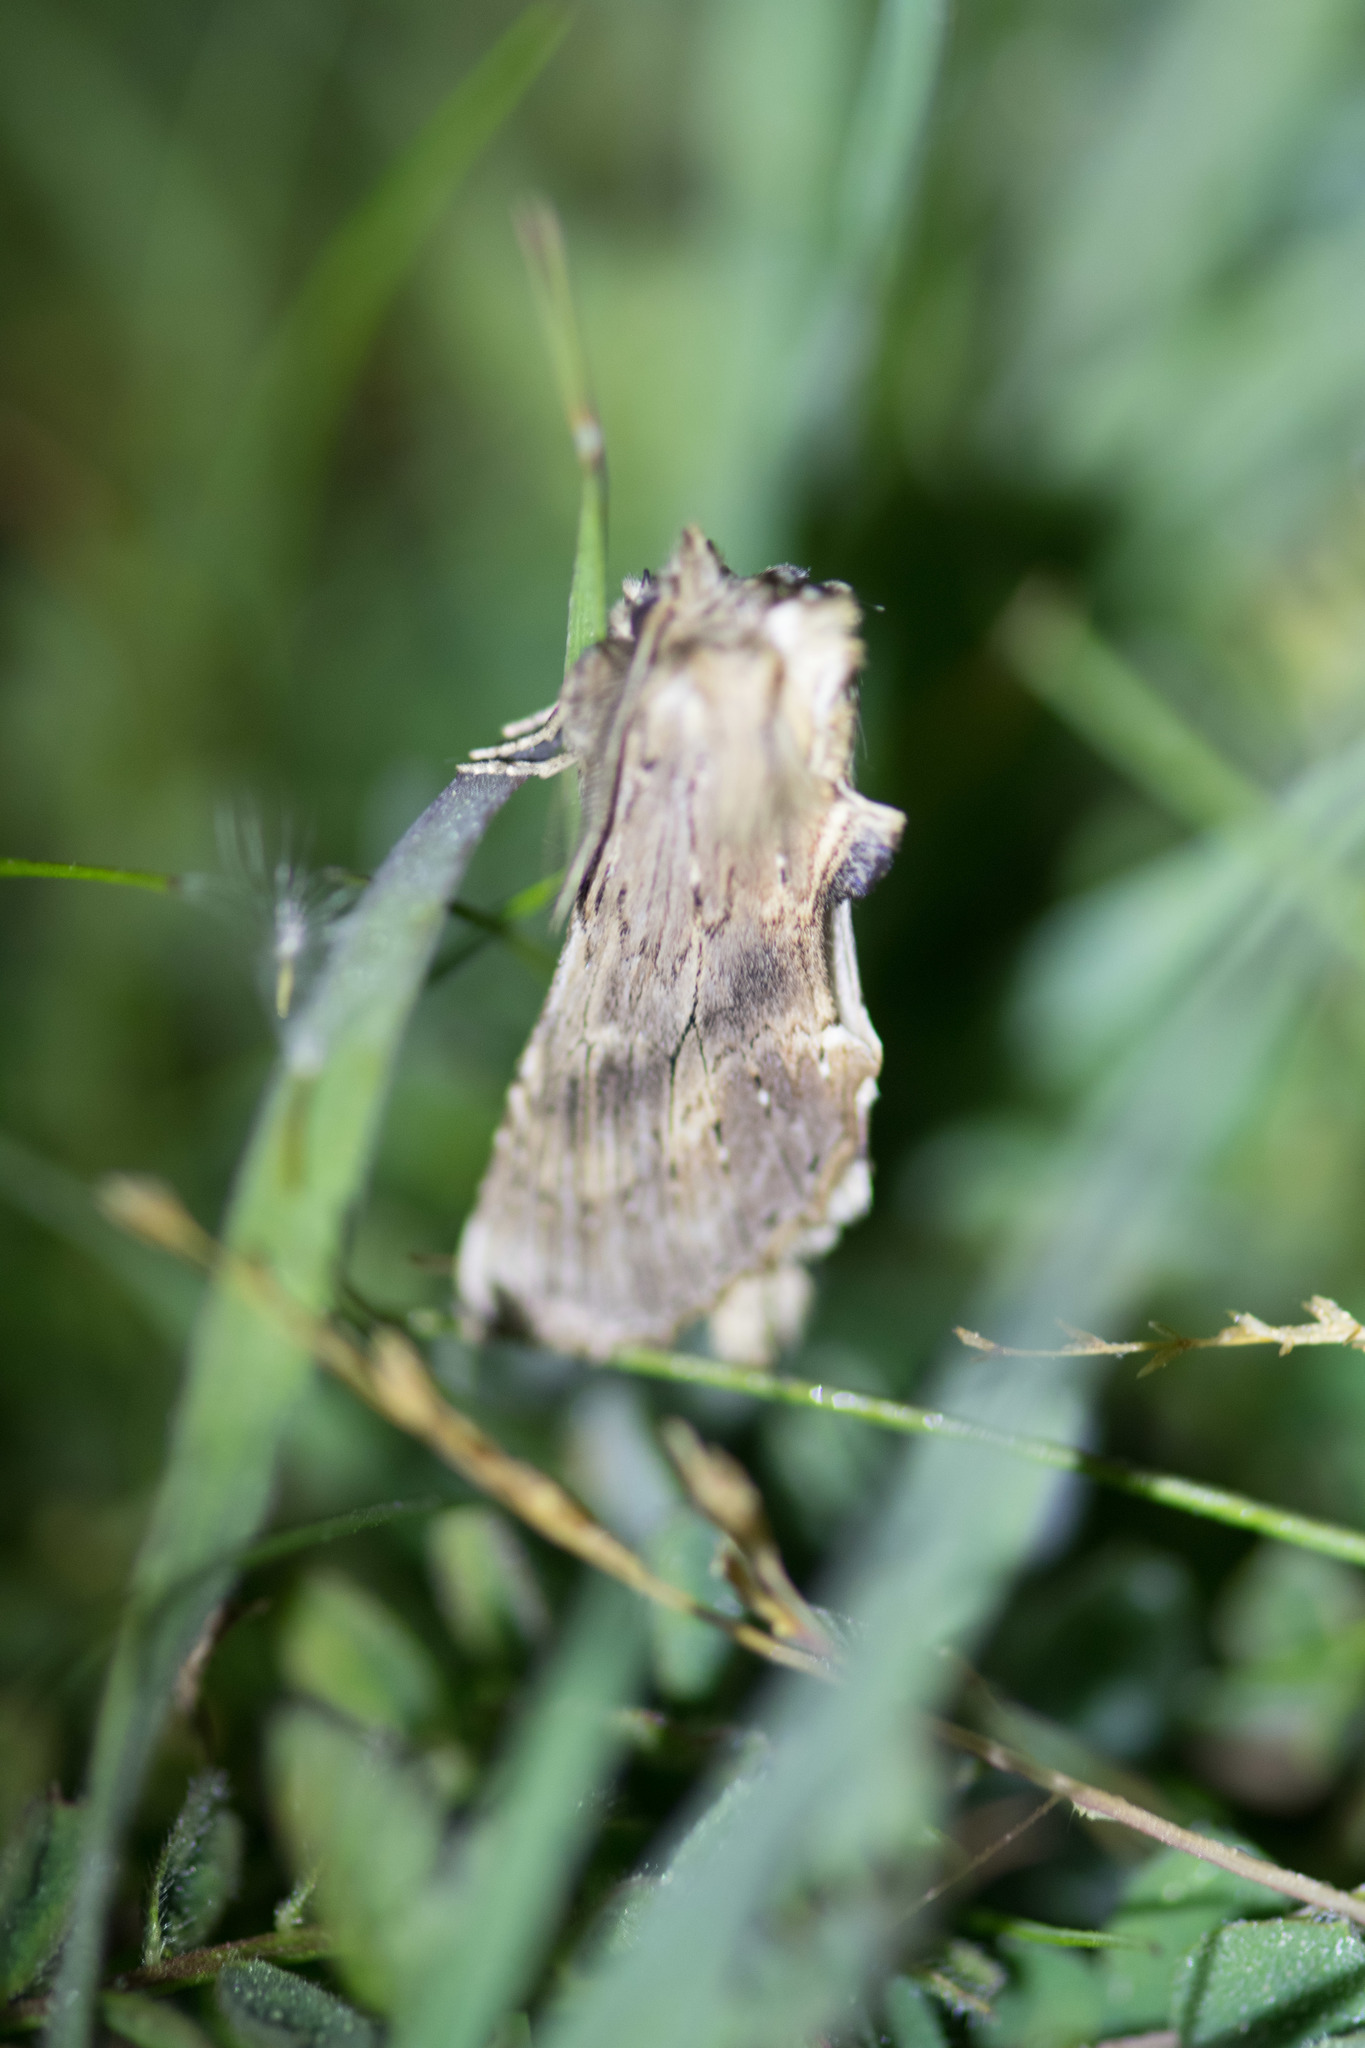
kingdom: Animalia
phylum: Arthropoda
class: Insecta
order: Lepidoptera
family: Notodontidae
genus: Pterostoma
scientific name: Pterostoma palpina
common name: Pale prominent
